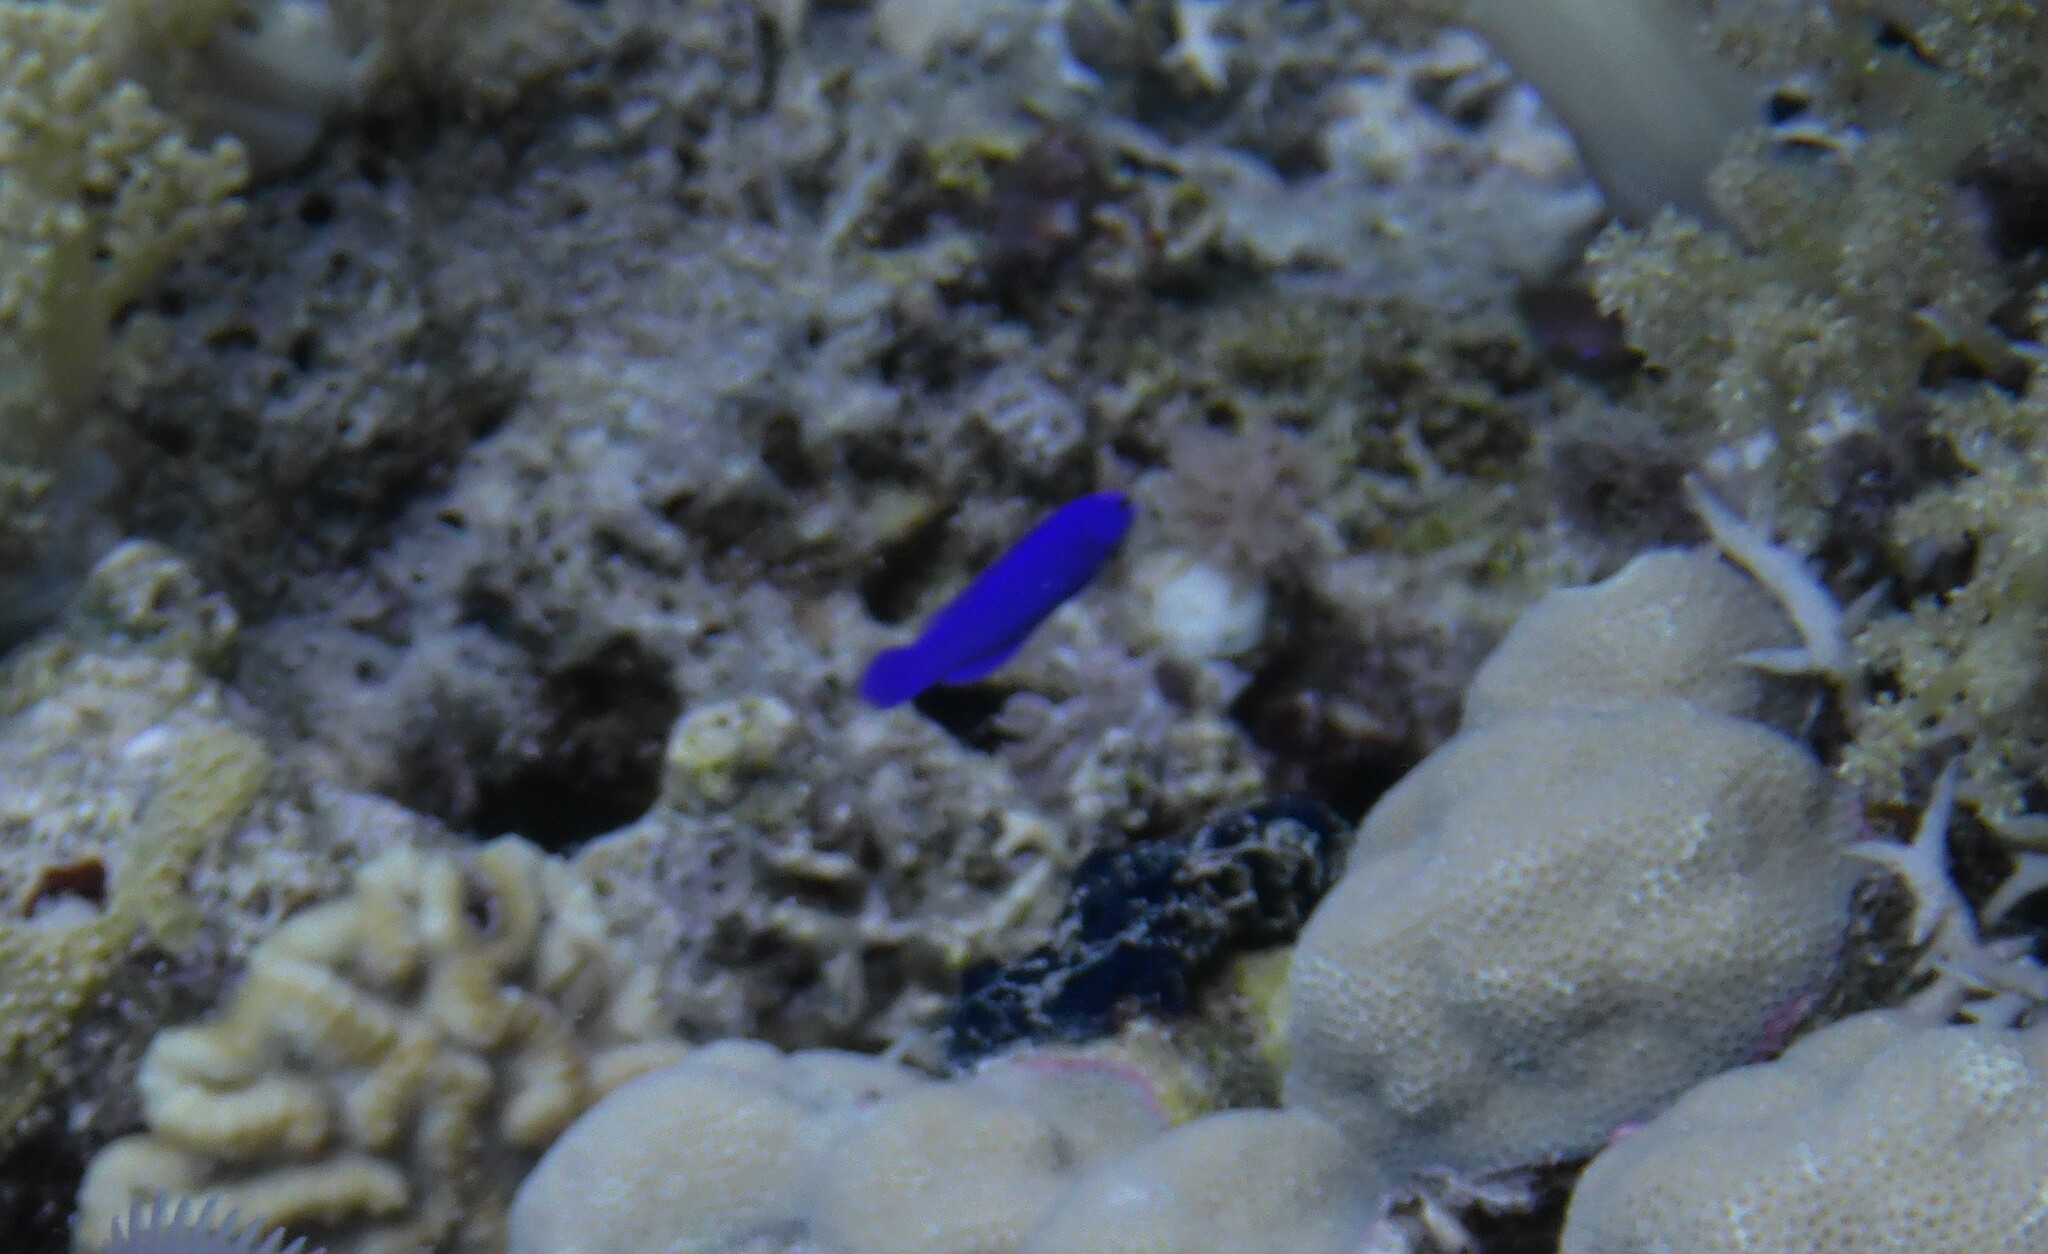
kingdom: Animalia
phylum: Chordata
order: Perciformes
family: Pseudochromidae
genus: Pseudochromis
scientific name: Pseudochromis fridmani
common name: Orchid dottyback
